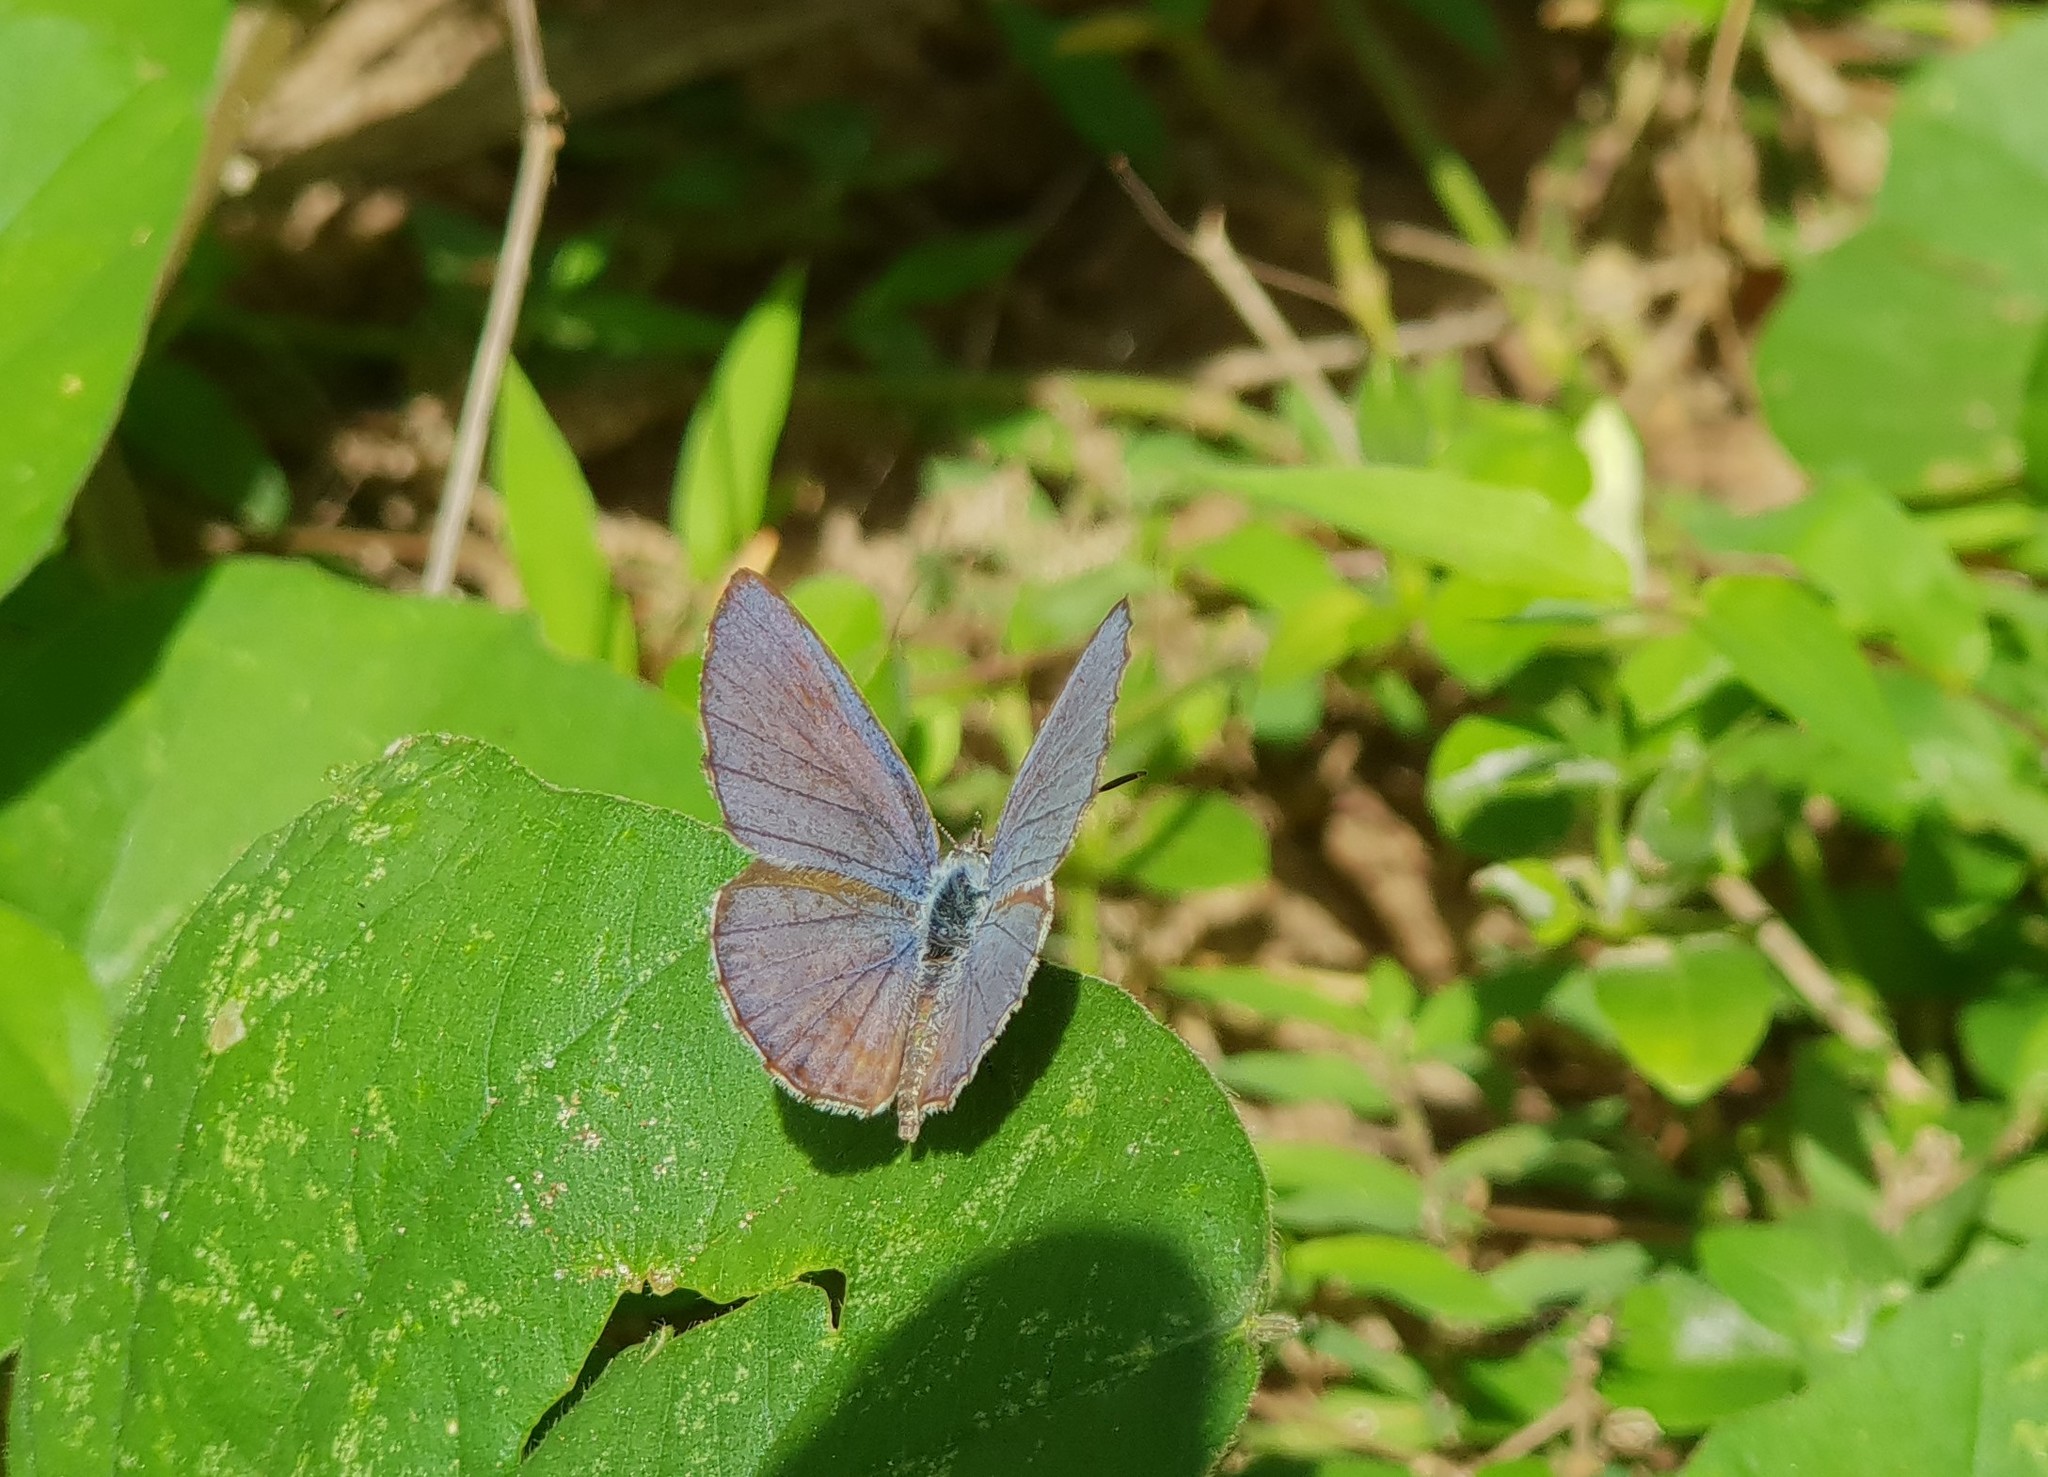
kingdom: Animalia
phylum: Arthropoda
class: Insecta
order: Lepidoptera
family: Lycaenidae
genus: Chilades
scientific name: Chilades laius
